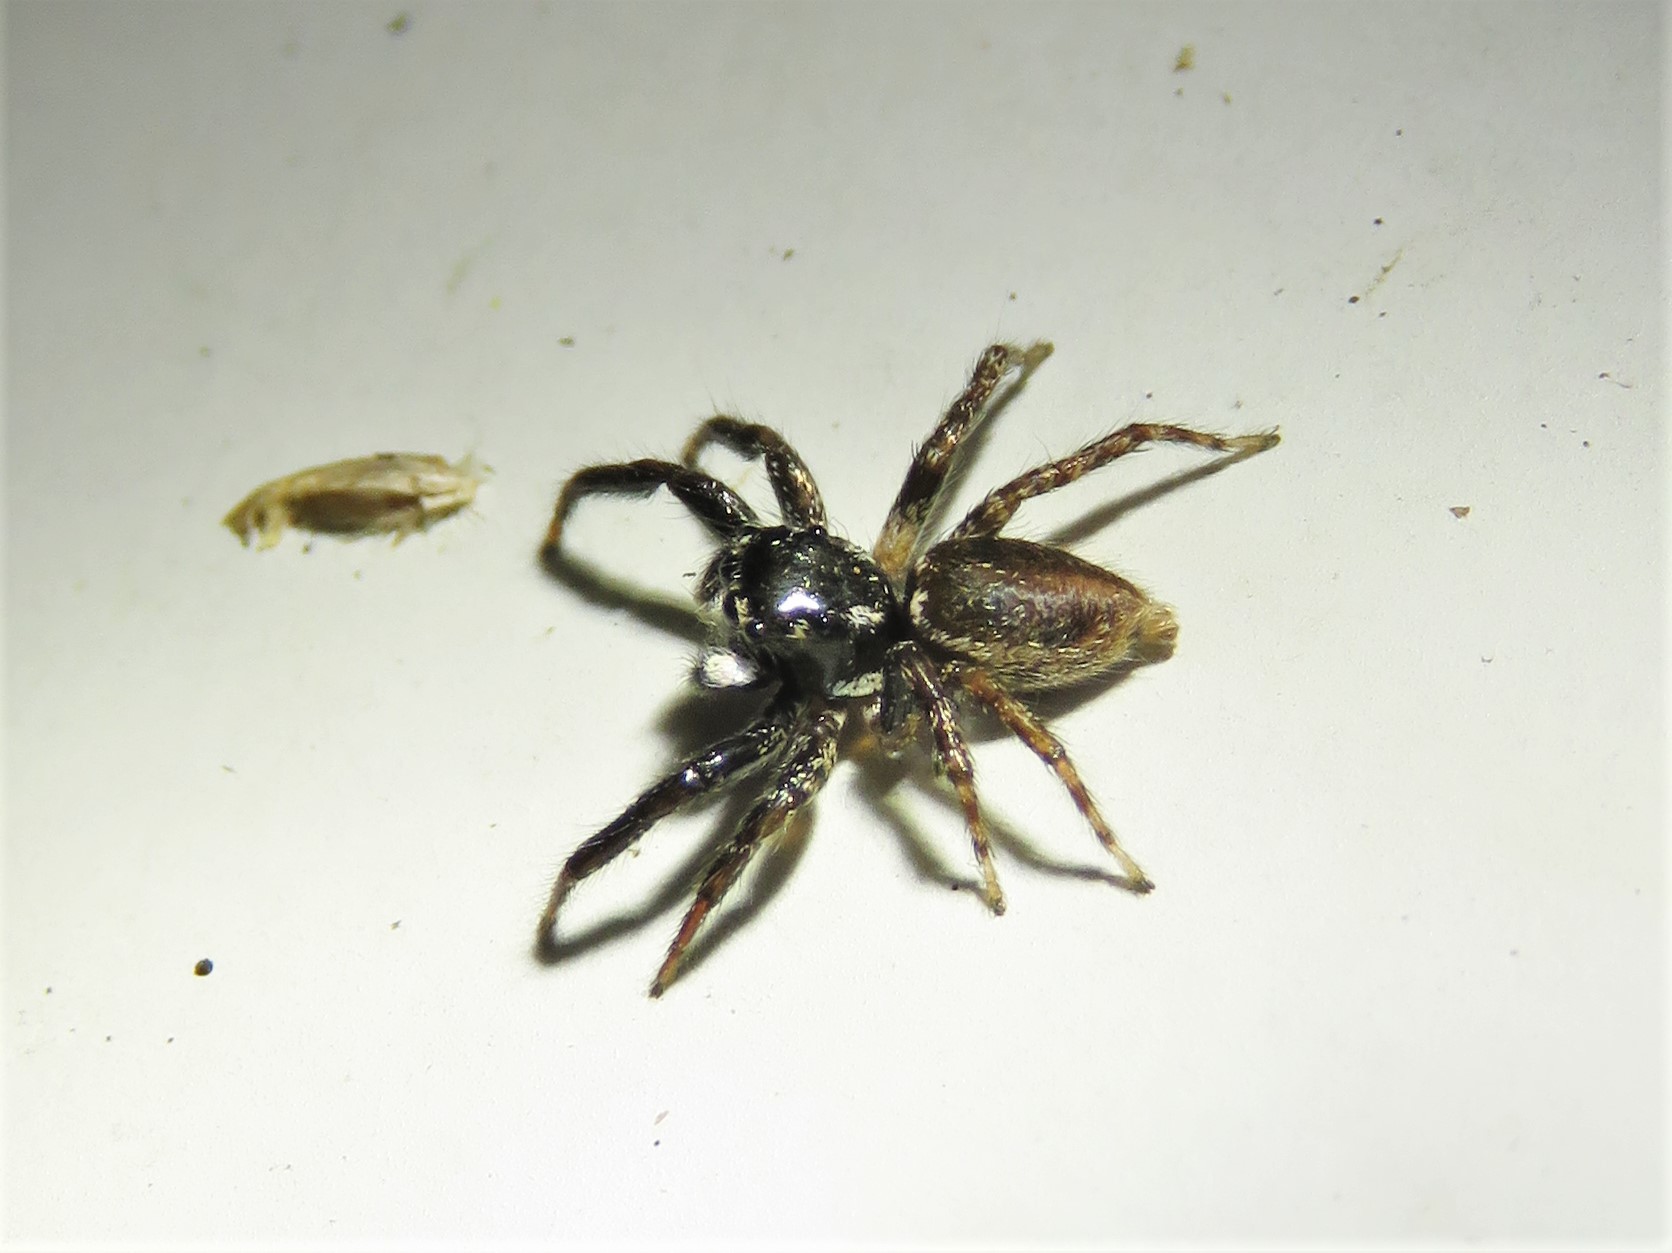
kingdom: Animalia
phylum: Arthropoda
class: Arachnida
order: Araneae
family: Salticidae
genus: Anasaitis
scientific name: Anasaitis canosa
